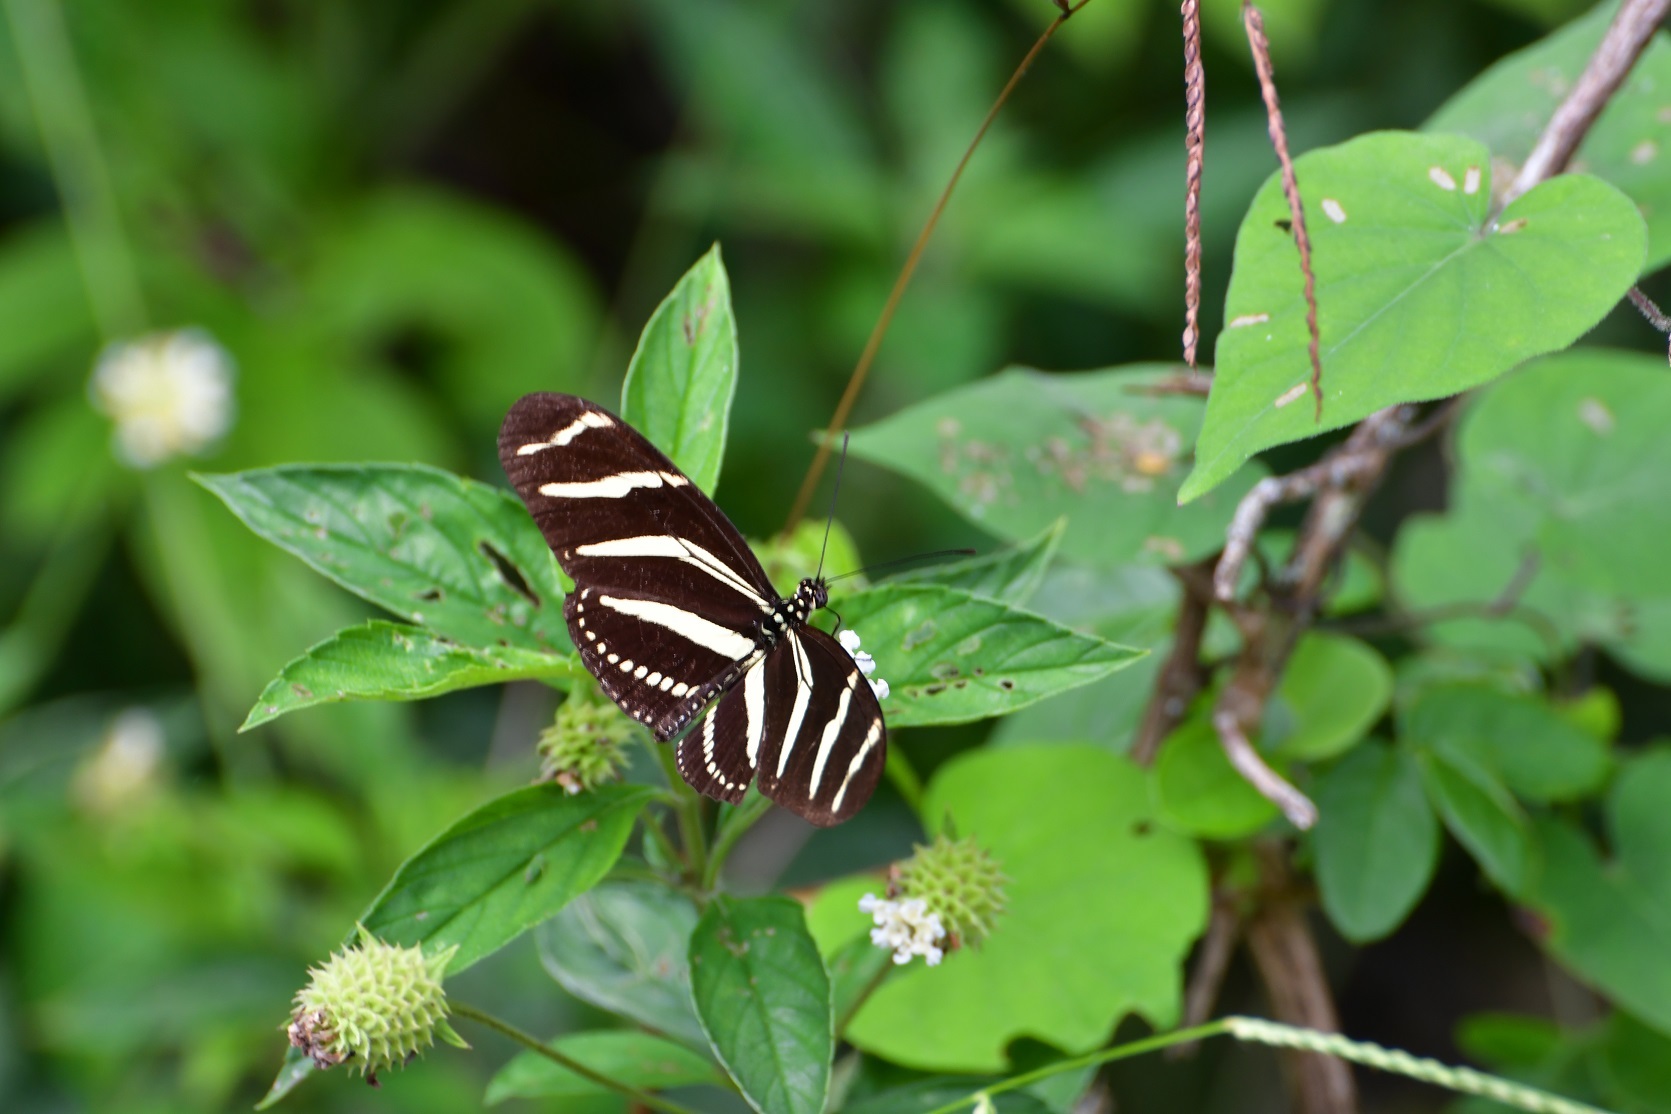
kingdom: Animalia
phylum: Arthropoda
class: Insecta
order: Lepidoptera
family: Nymphalidae
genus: Heliconius
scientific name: Heliconius charithonia
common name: Zebra long wing
